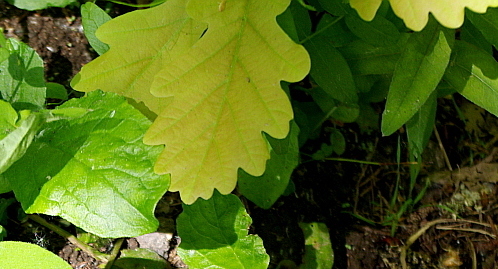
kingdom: Plantae
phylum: Tracheophyta
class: Magnoliopsida
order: Fagales
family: Fagaceae
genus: Quercus
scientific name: Quercus robur
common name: Pedunculate oak
